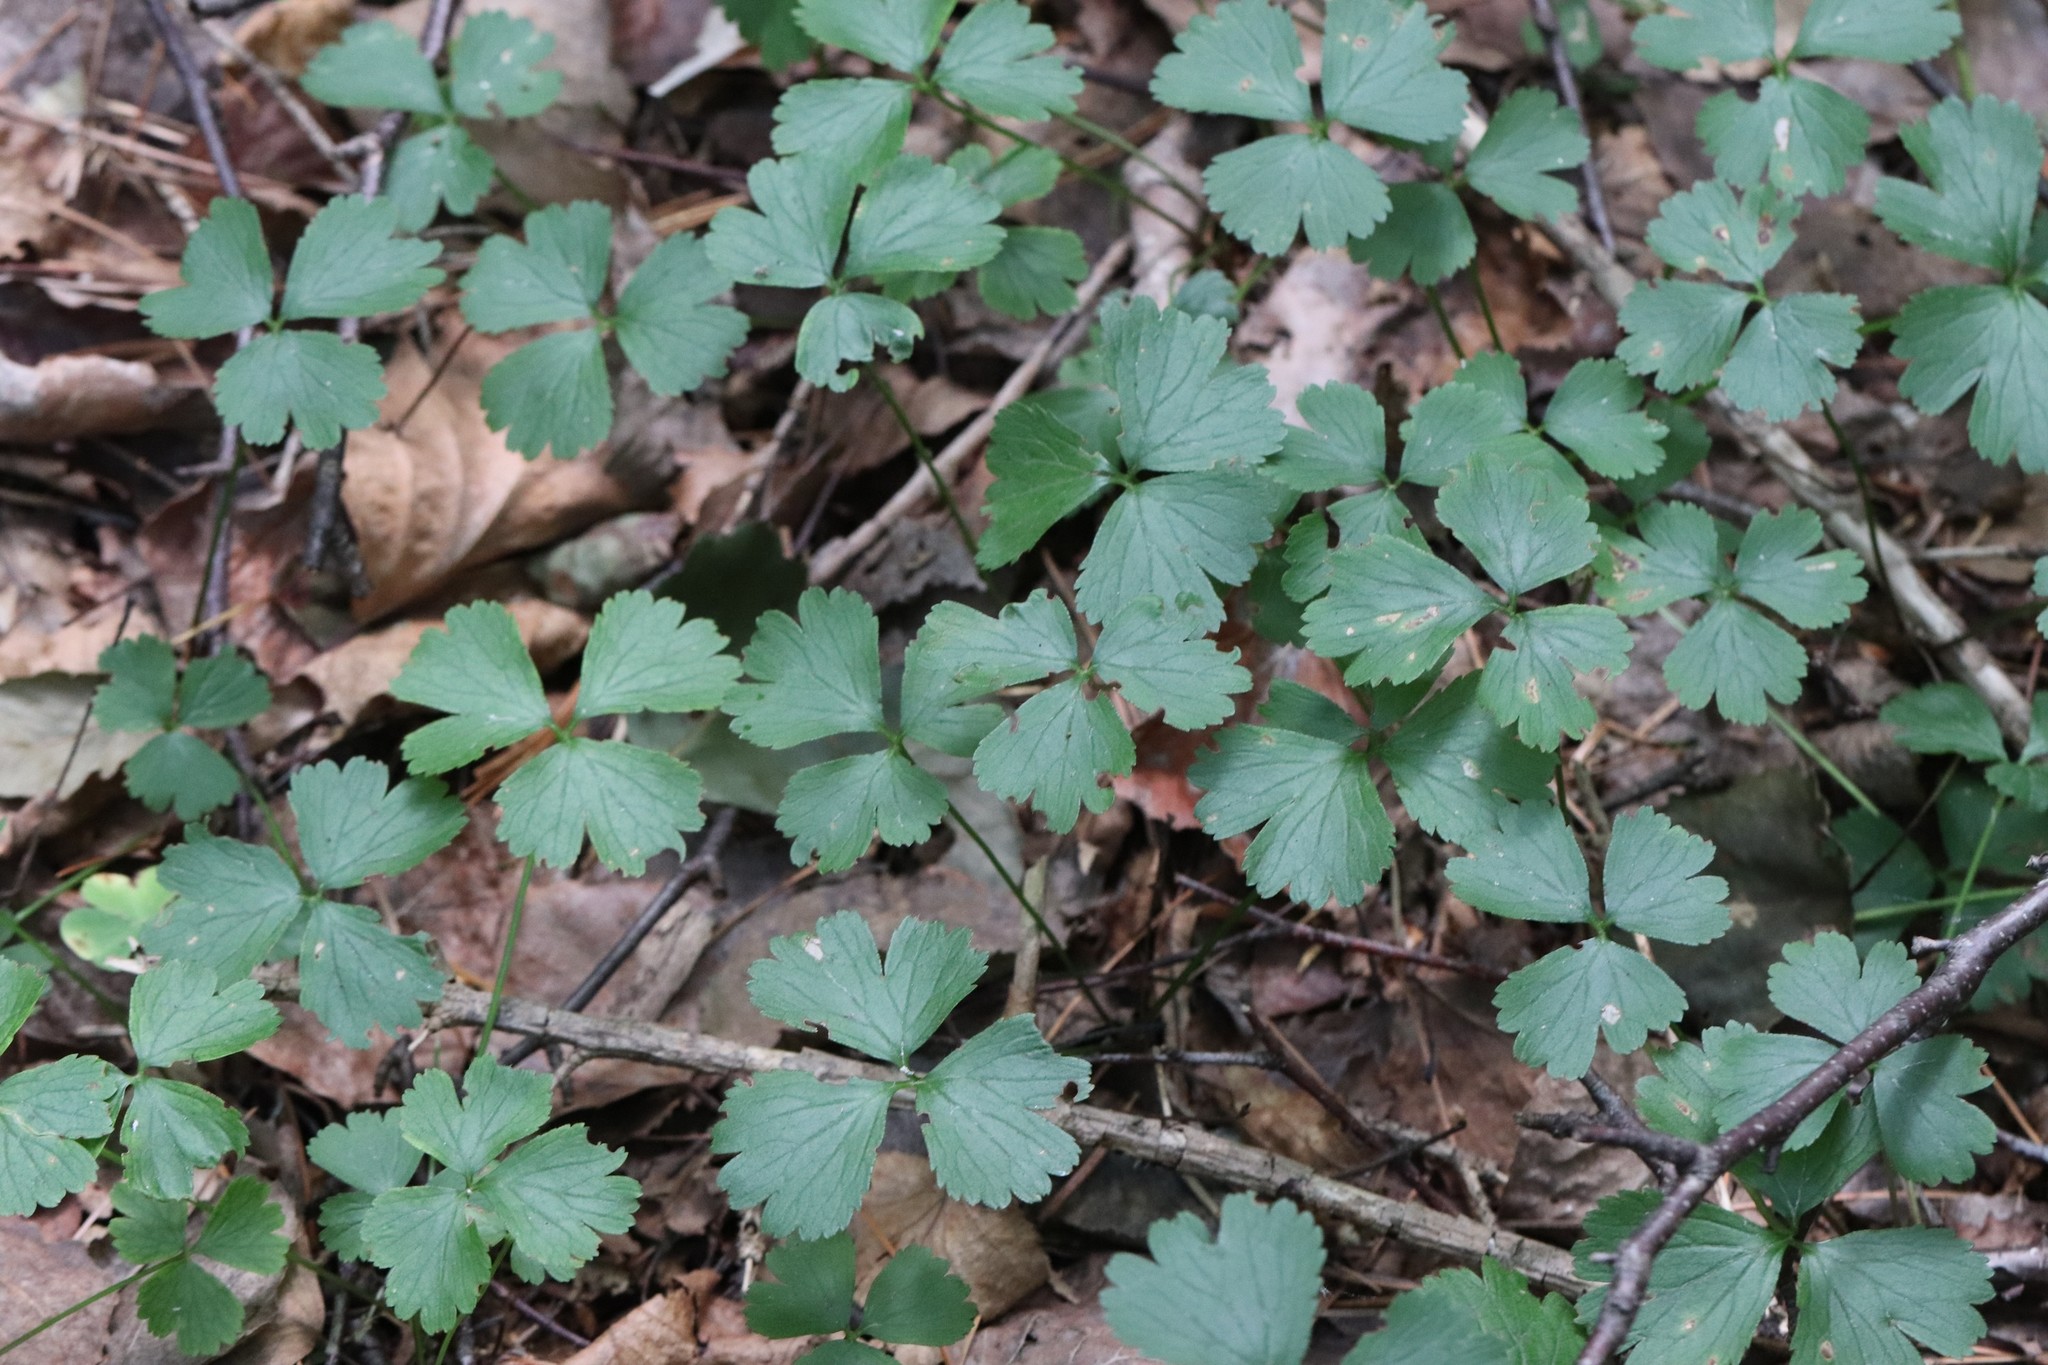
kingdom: Plantae
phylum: Tracheophyta
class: Magnoliopsida
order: Rosales
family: Rosaceae
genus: Geum
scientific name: Geum ternatum
